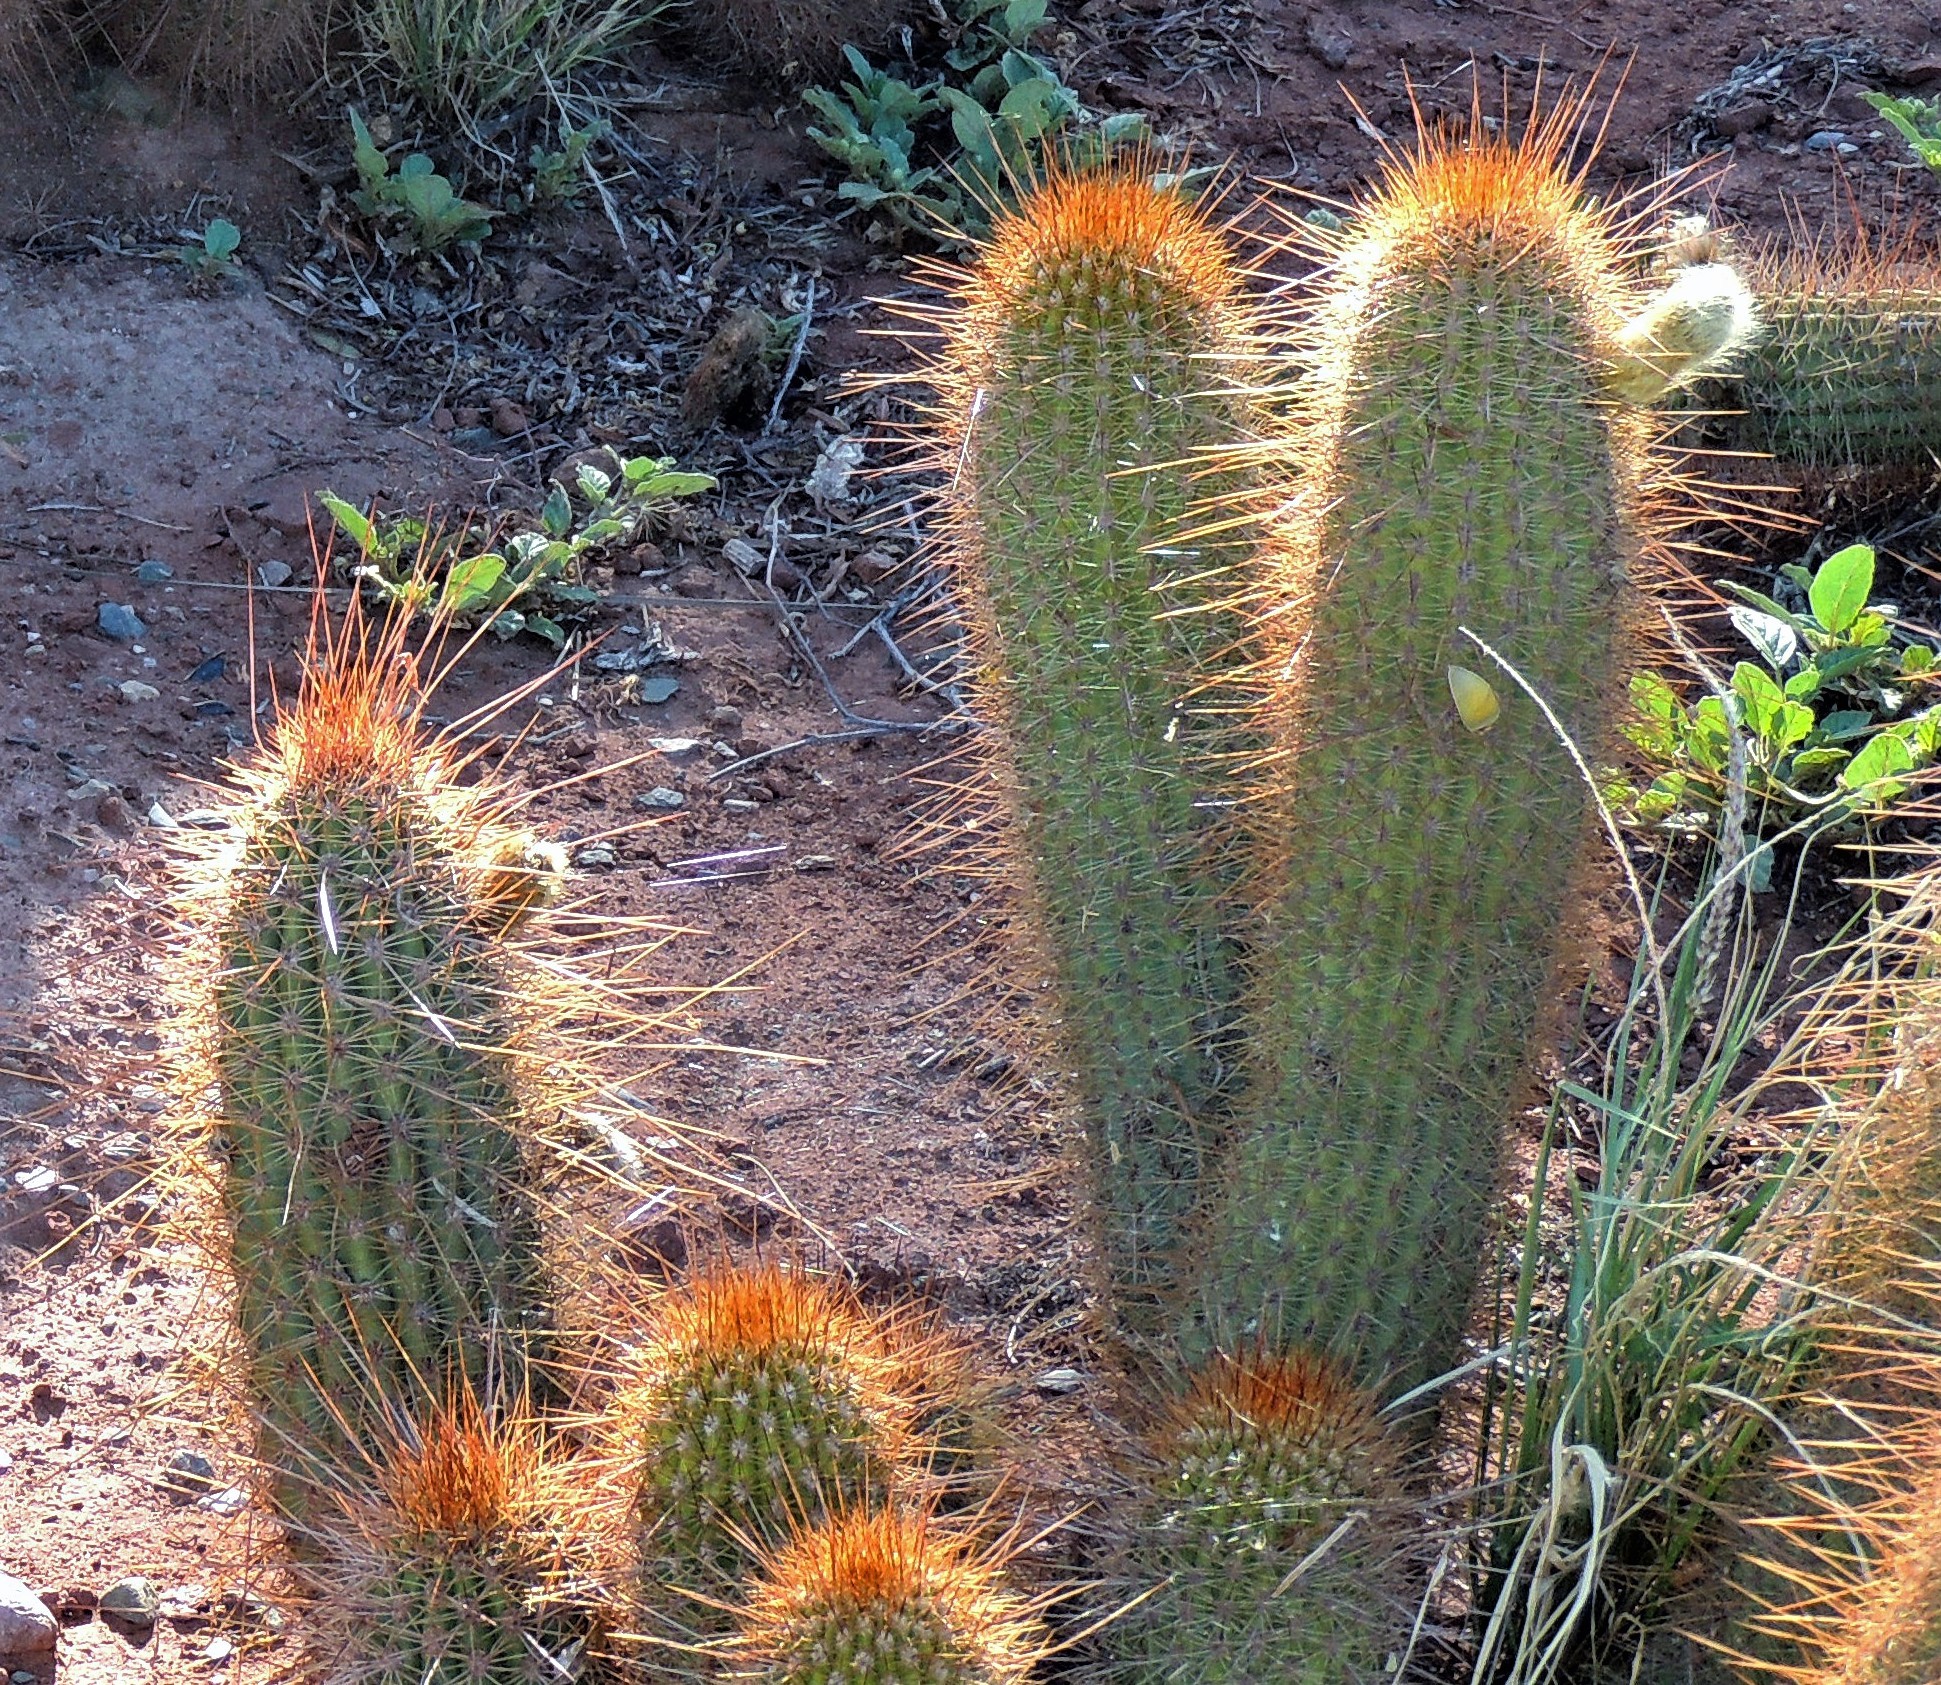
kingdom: Plantae
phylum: Tracheophyta
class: Magnoliopsida
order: Caryophyllales
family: Cactaceae
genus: Soehrensia
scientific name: Soehrensia strigosa
